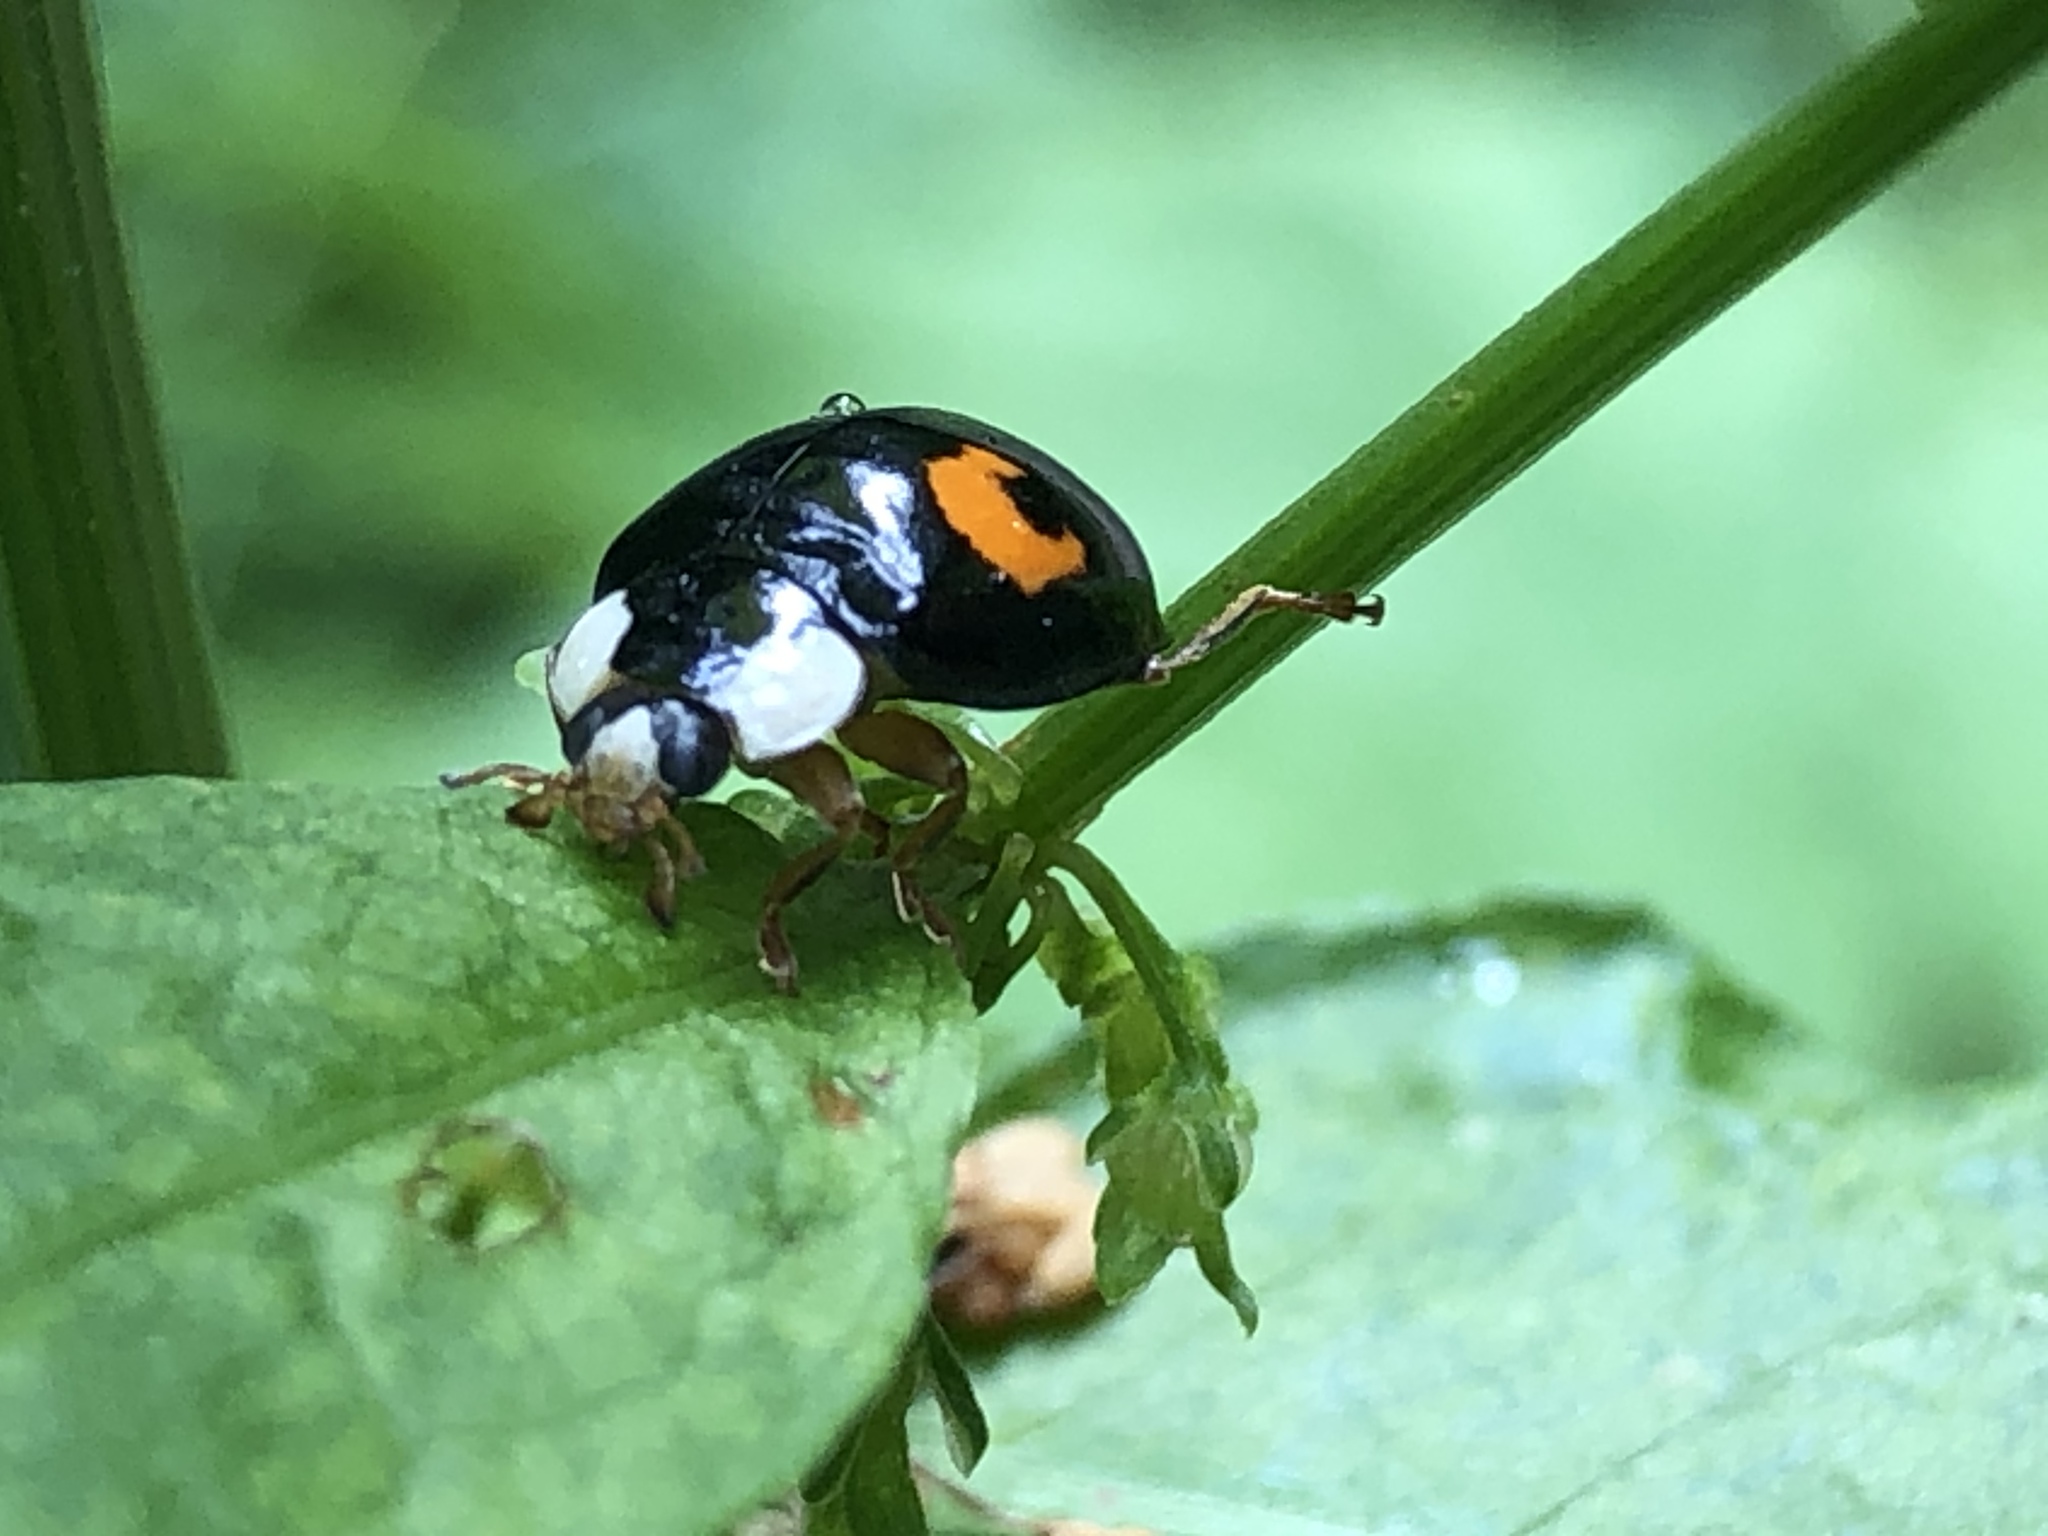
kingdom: Animalia
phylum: Arthropoda
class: Insecta
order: Coleoptera
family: Coccinellidae
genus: Harmonia
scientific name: Harmonia axyridis
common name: Harlequin ladybird
